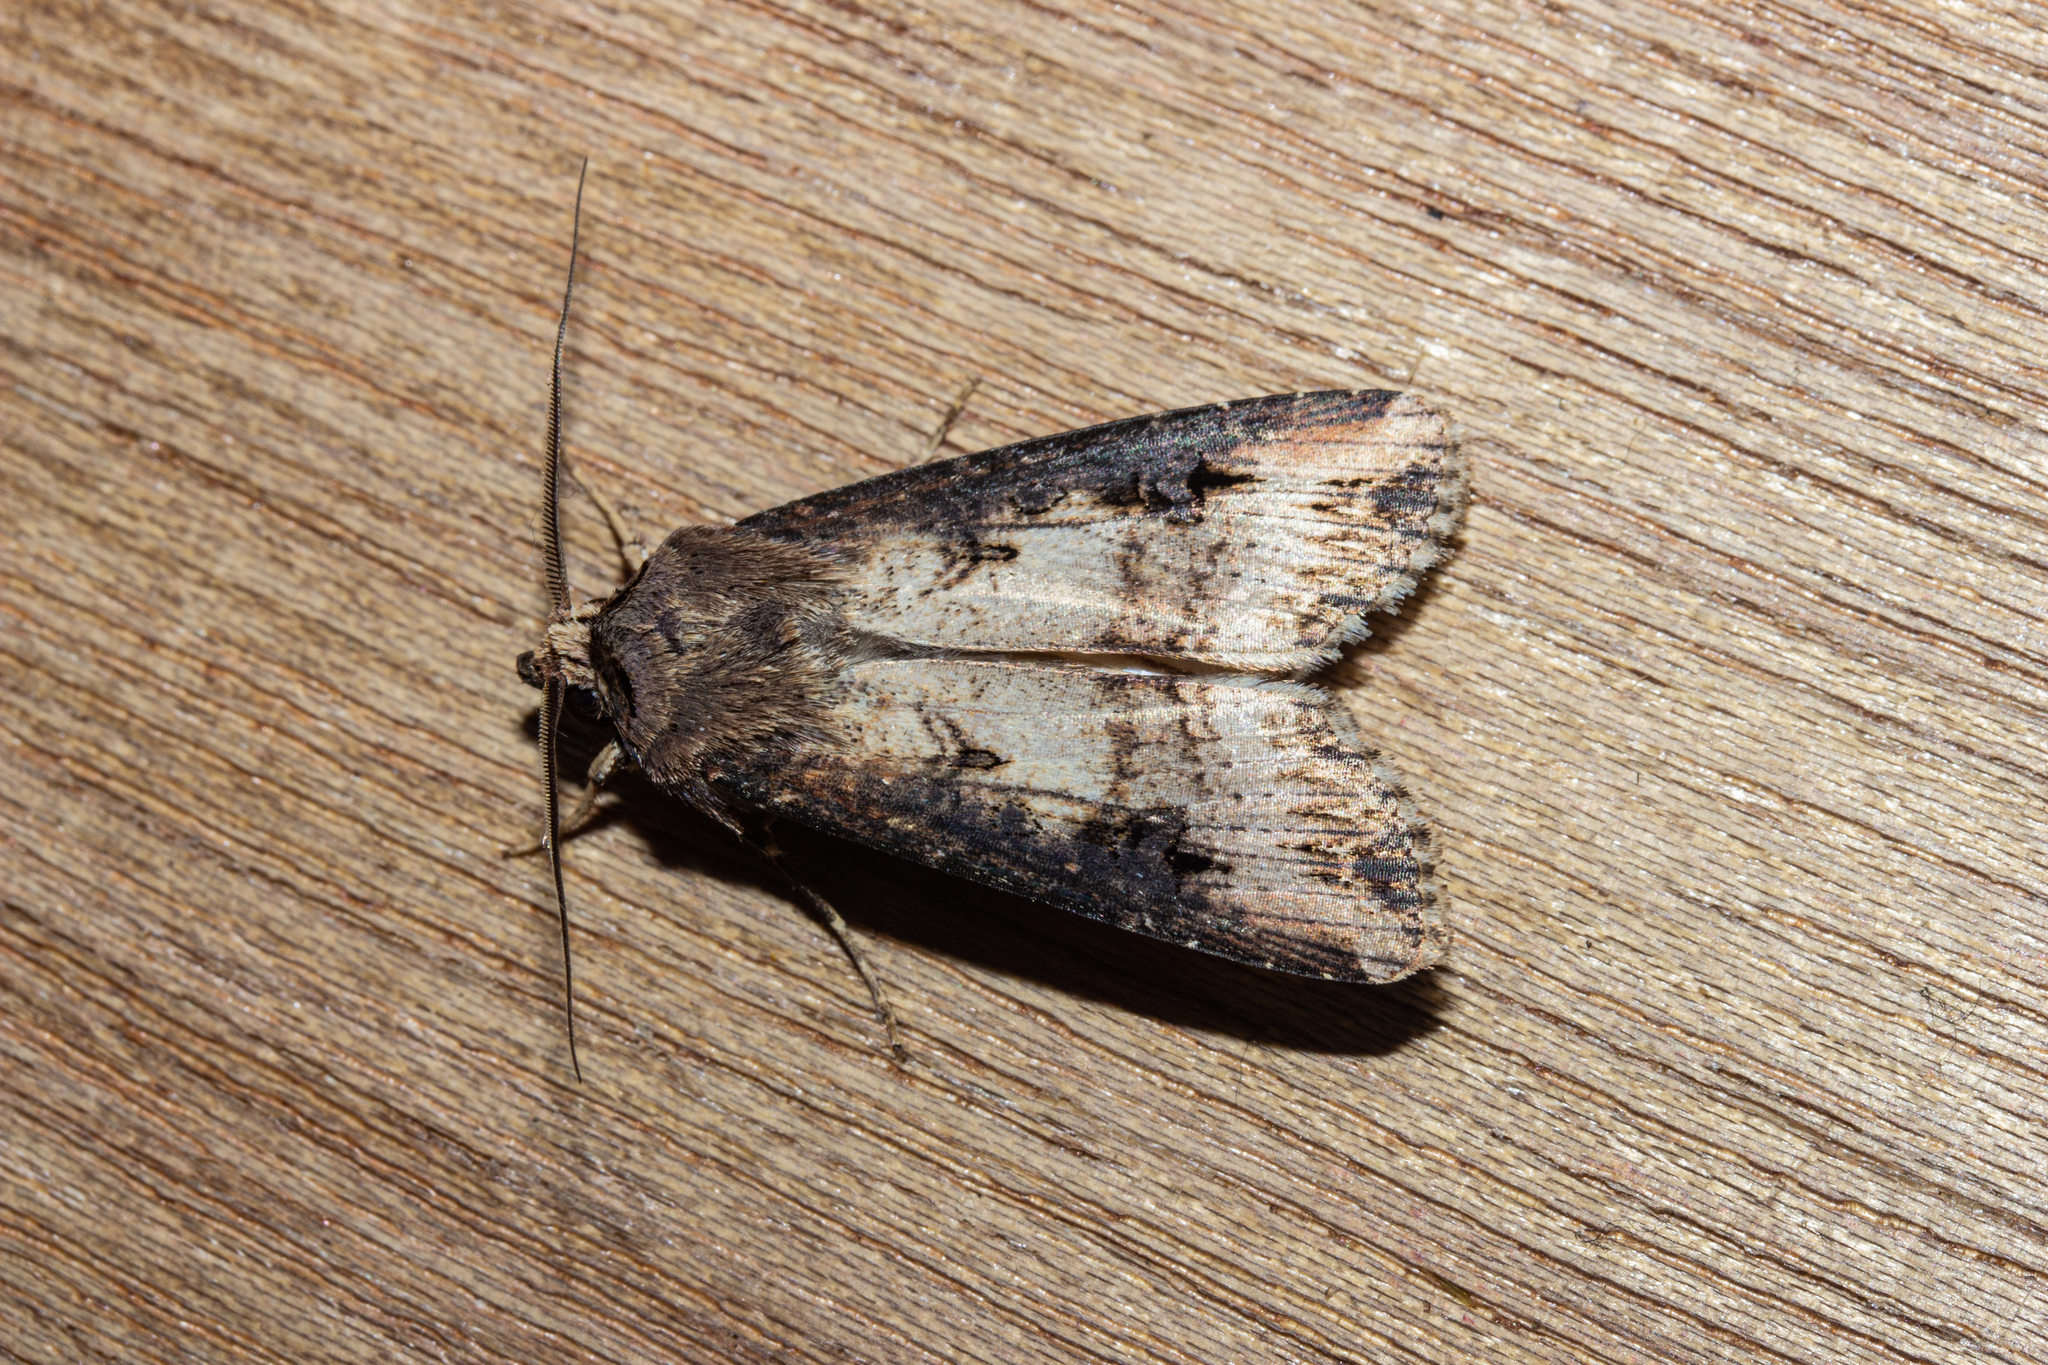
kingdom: Animalia
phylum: Arthropoda
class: Insecta
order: Lepidoptera
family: Noctuidae
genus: Agrotis
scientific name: Agrotis ipsilon
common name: Dark sword-grass
